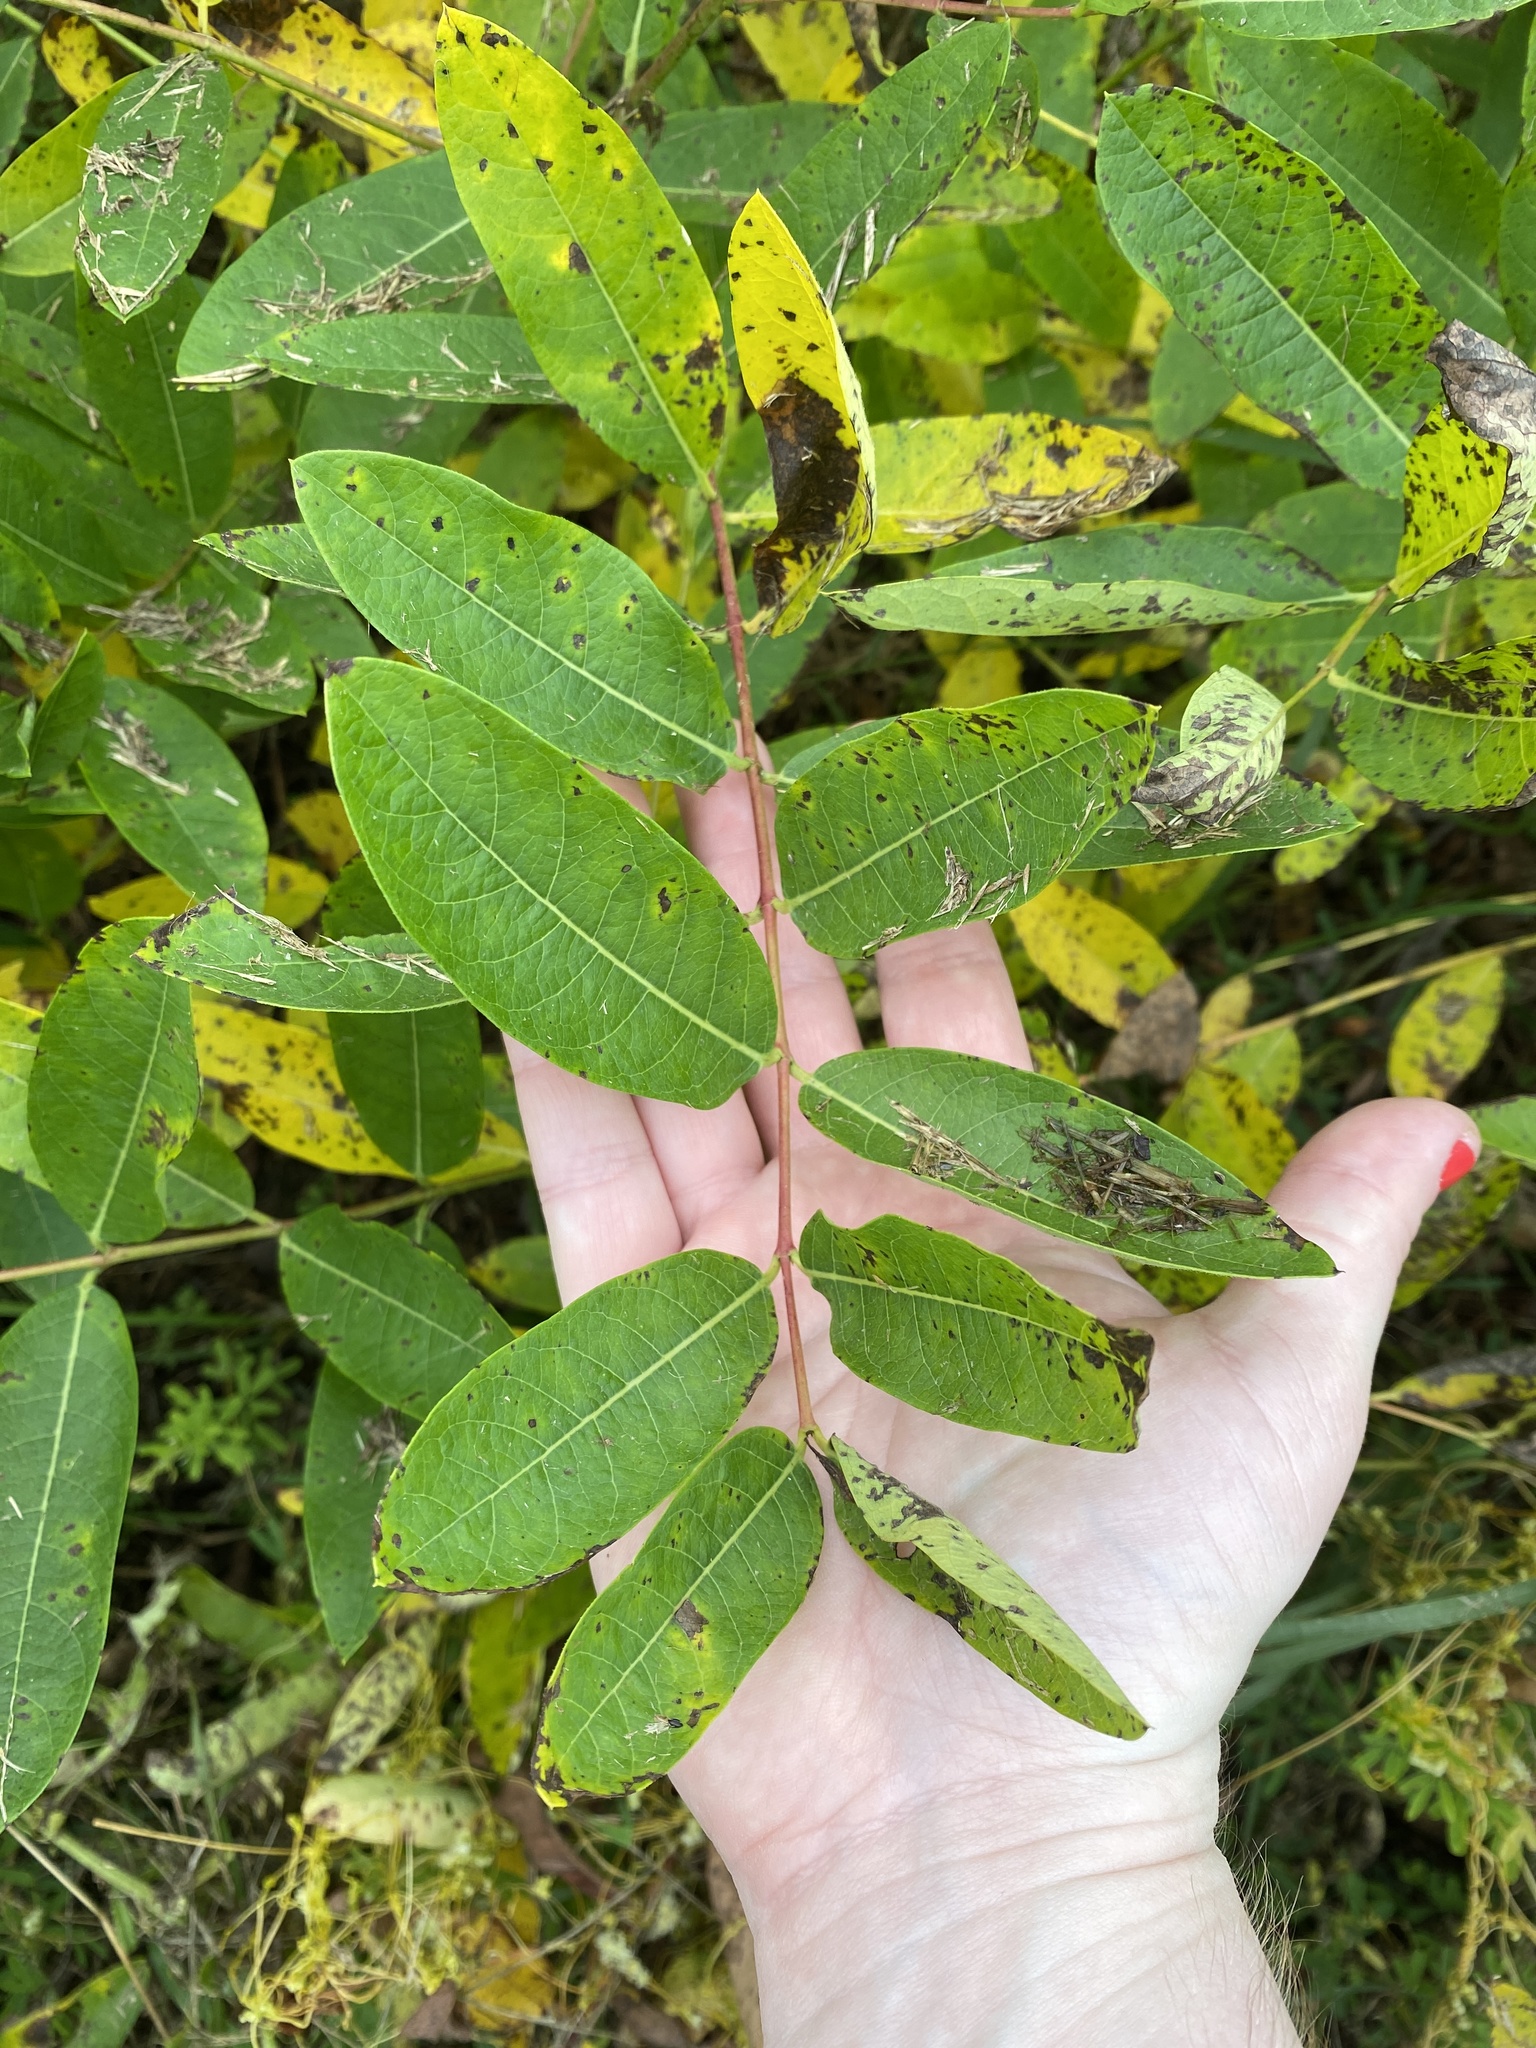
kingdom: Plantae
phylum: Tracheophyta
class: Magnoliopsida
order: Gentianales
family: Apocynaceae
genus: Apocynum
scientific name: Apocynum cannabinum
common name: Hemp dogbane
